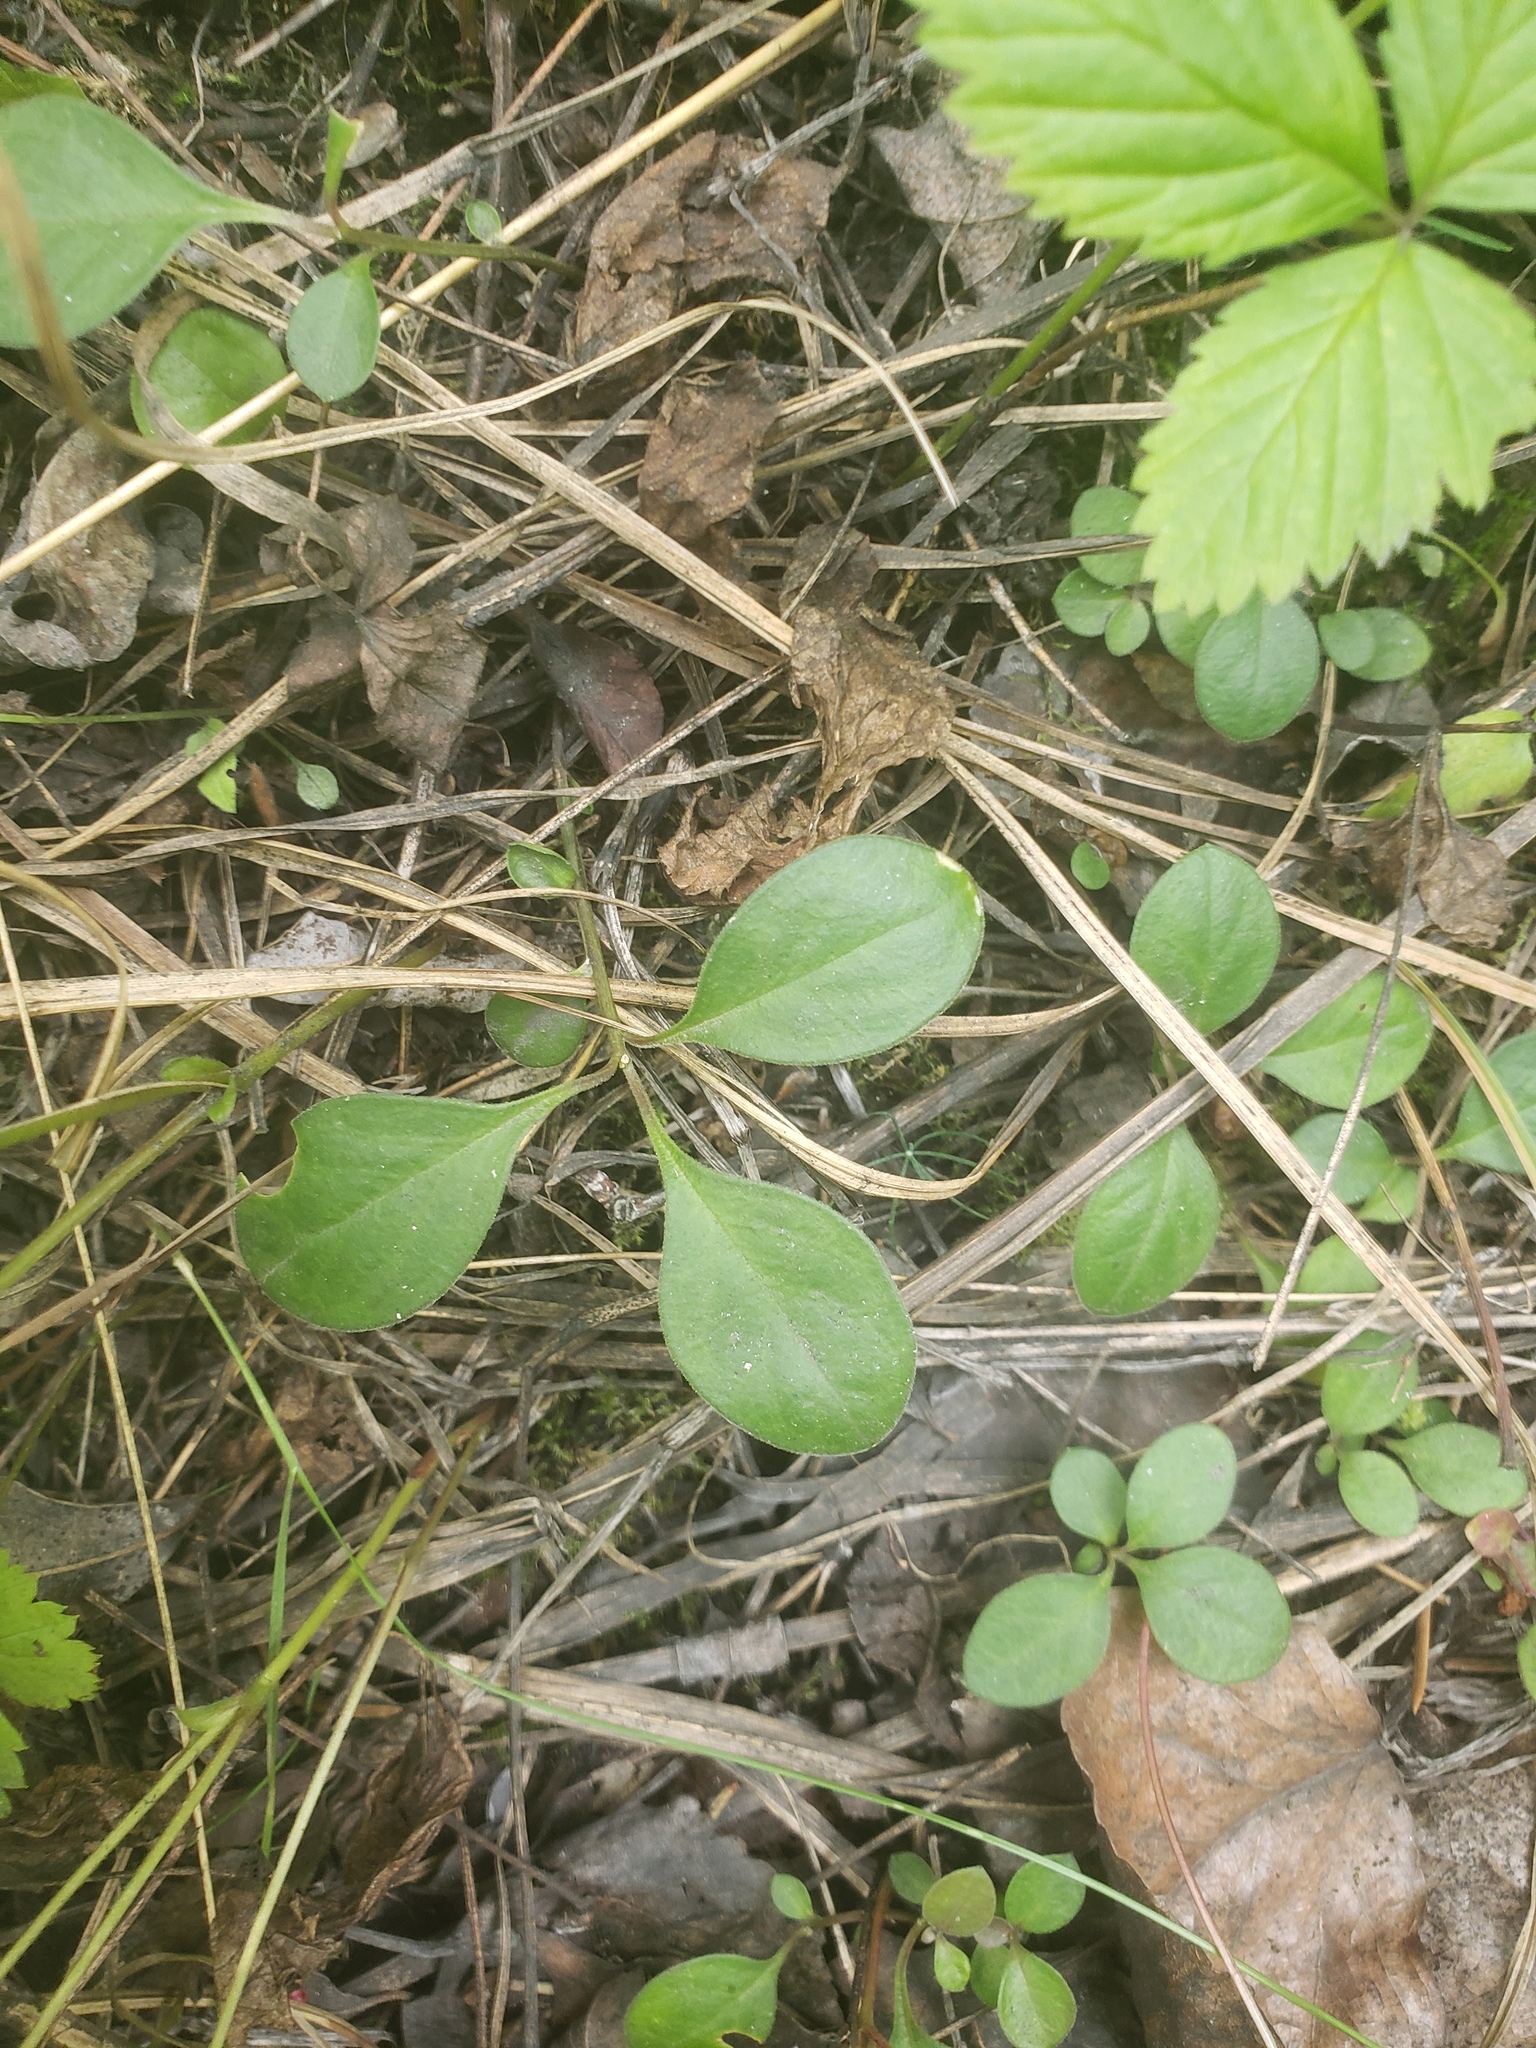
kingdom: Plantae
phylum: Tracheophyta
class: Magnoliopsida
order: Fabales
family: Polygalaceae
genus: Polygaloides
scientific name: Polygaloides paucifolia
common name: Bird-on-the-wing
